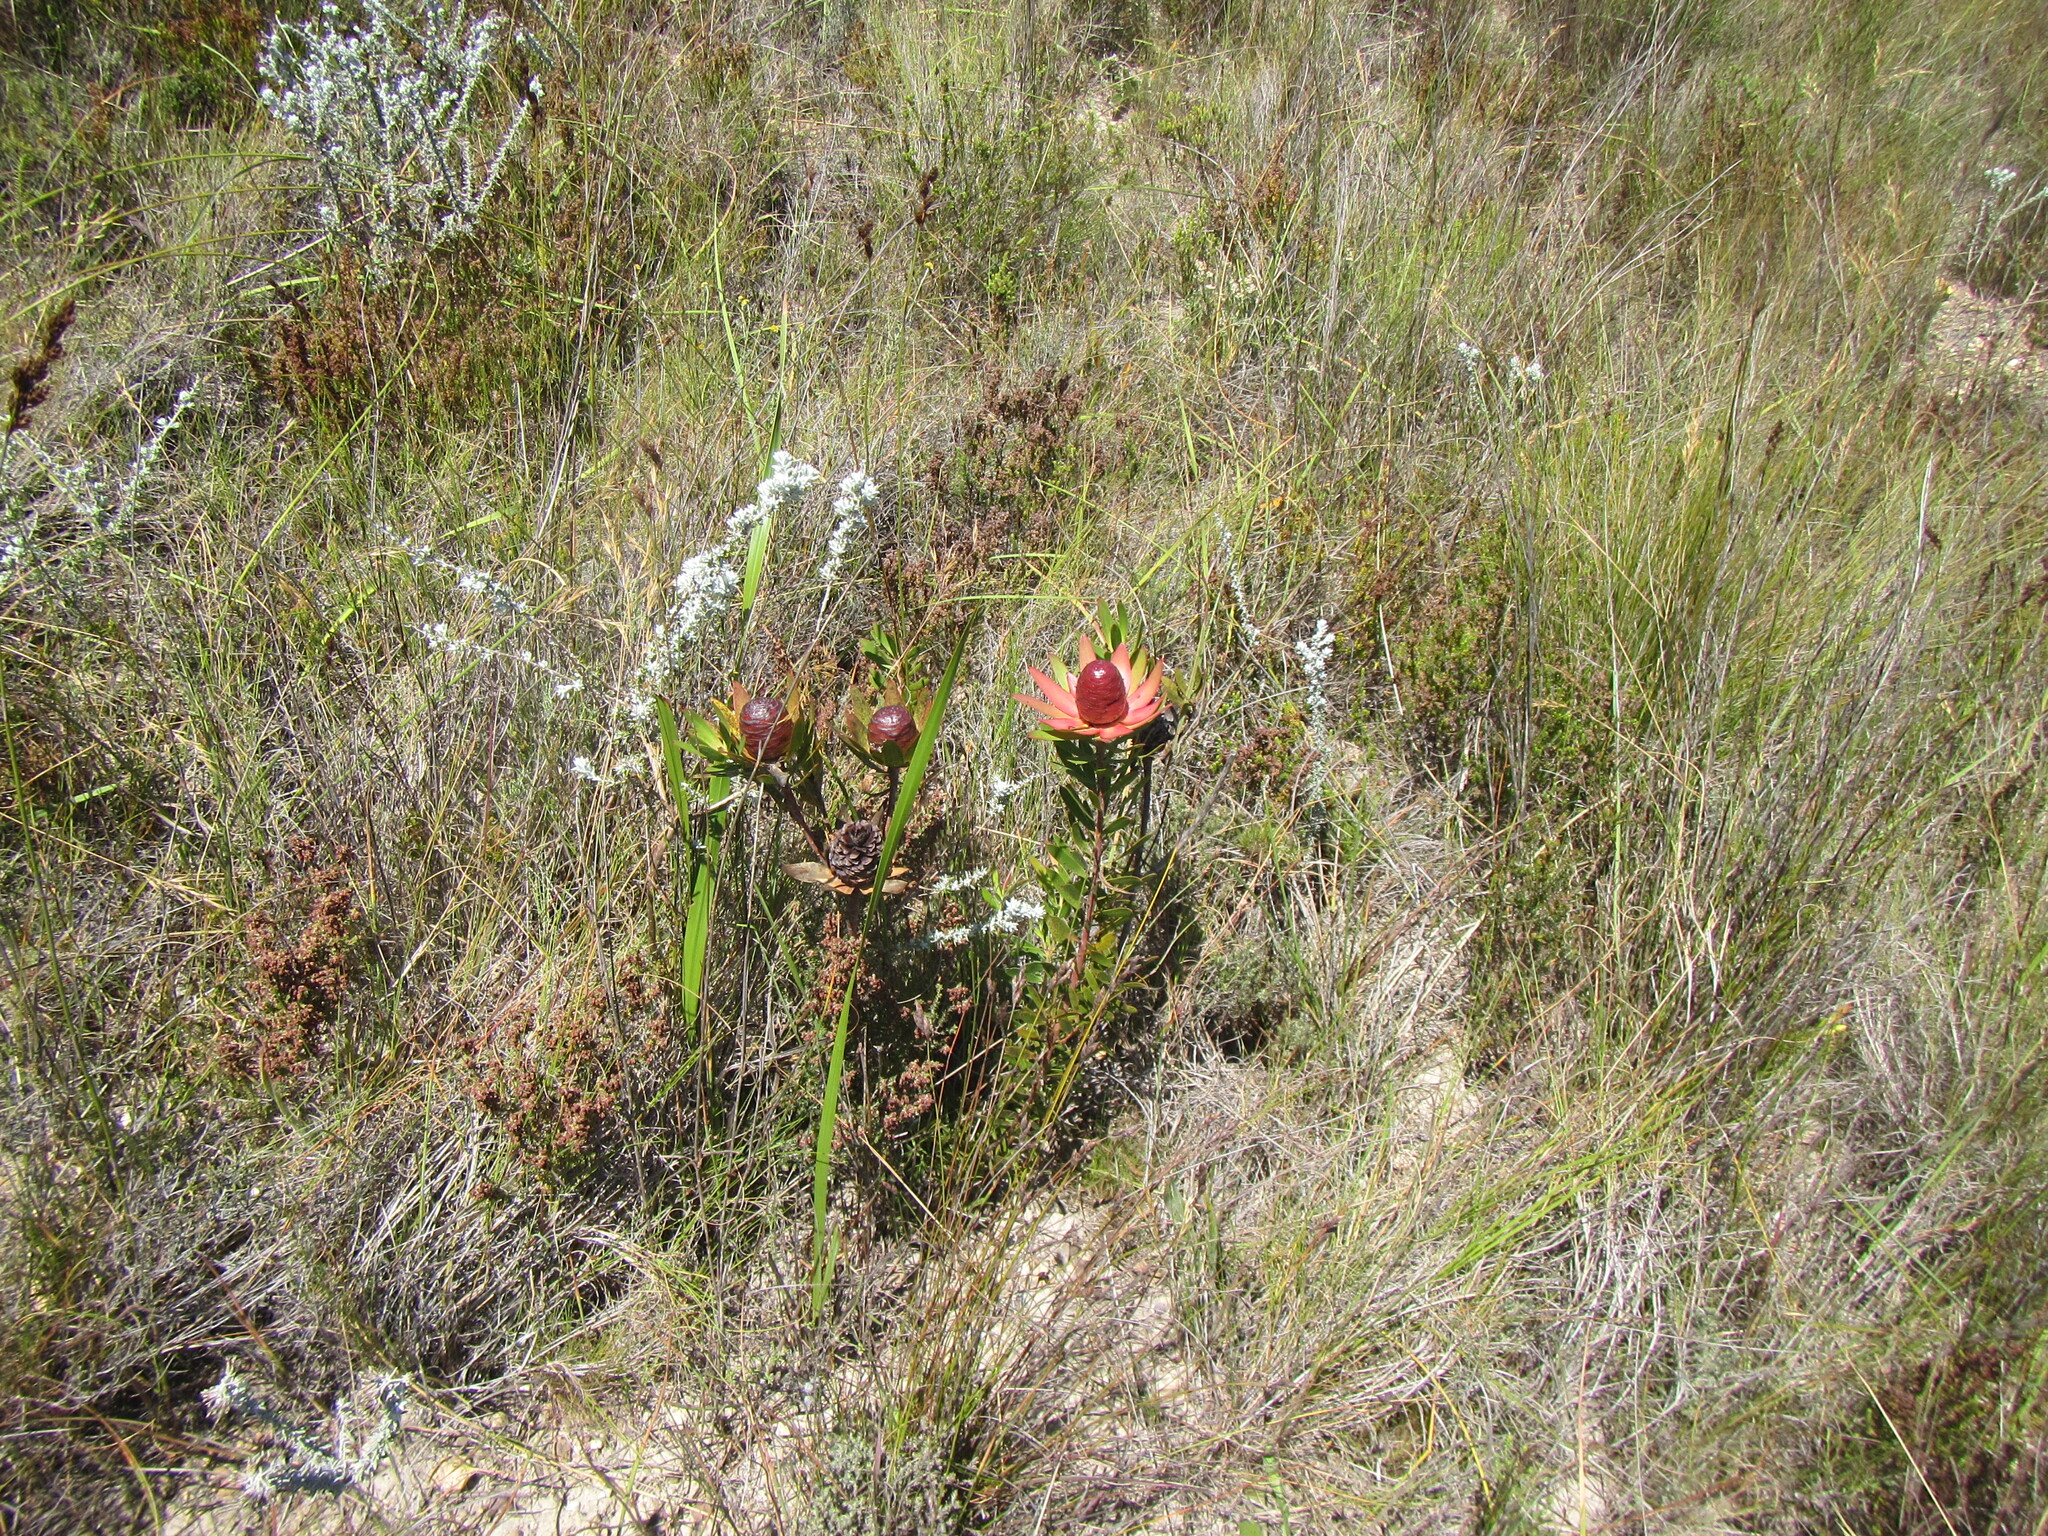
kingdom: Plantae
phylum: Tracheophyta
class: Magnoliopsida
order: Proteales
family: Proteaceae
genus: Leucadendron
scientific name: Leucadendron spissifolium
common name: Spear-leaf conebush
